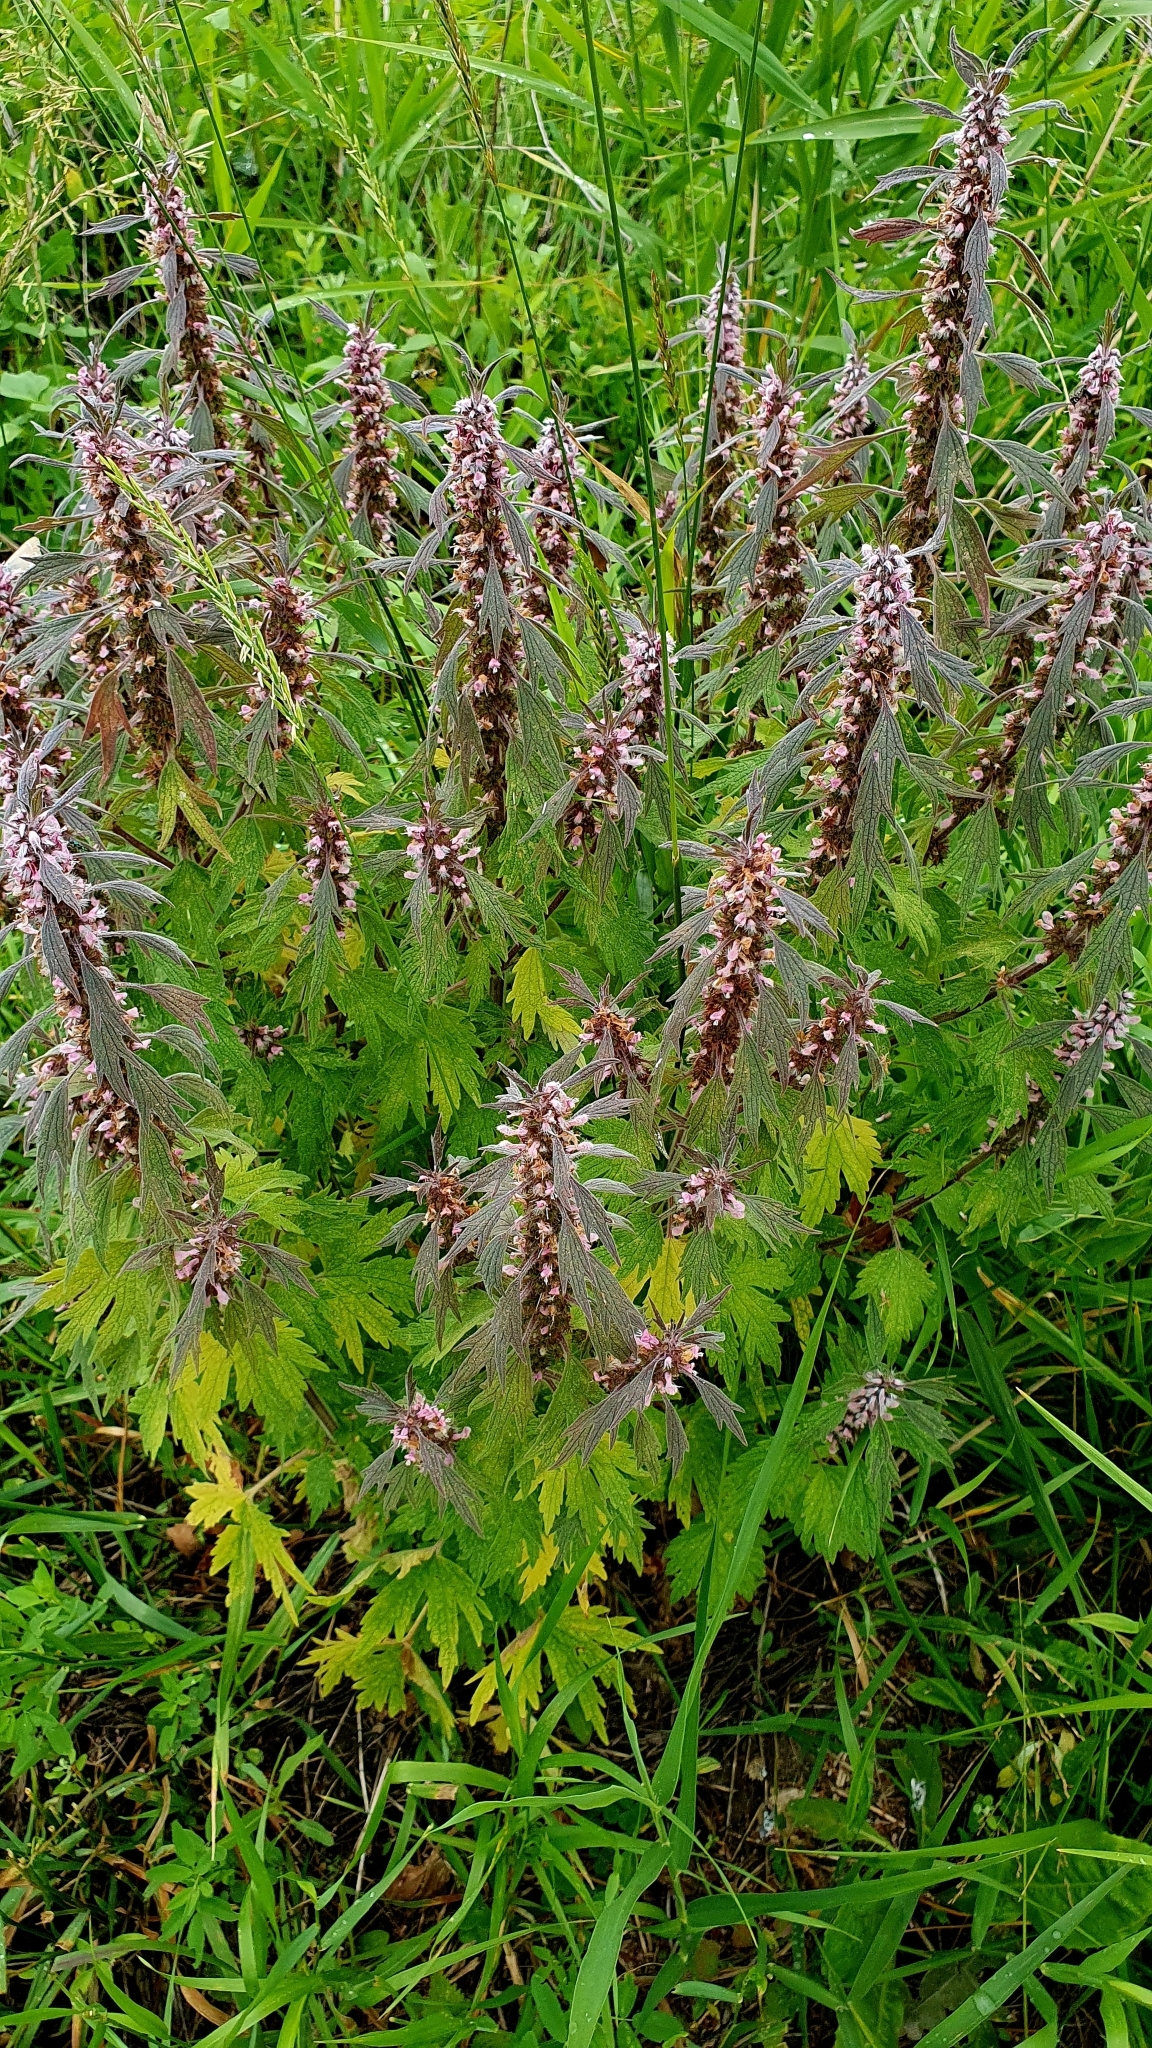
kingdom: Plantae
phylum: Tracheophyta
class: Magnoliopsida
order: Lamiales
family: Lamiaceae
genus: Leonurus
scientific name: Leonurus quinquelobatus
